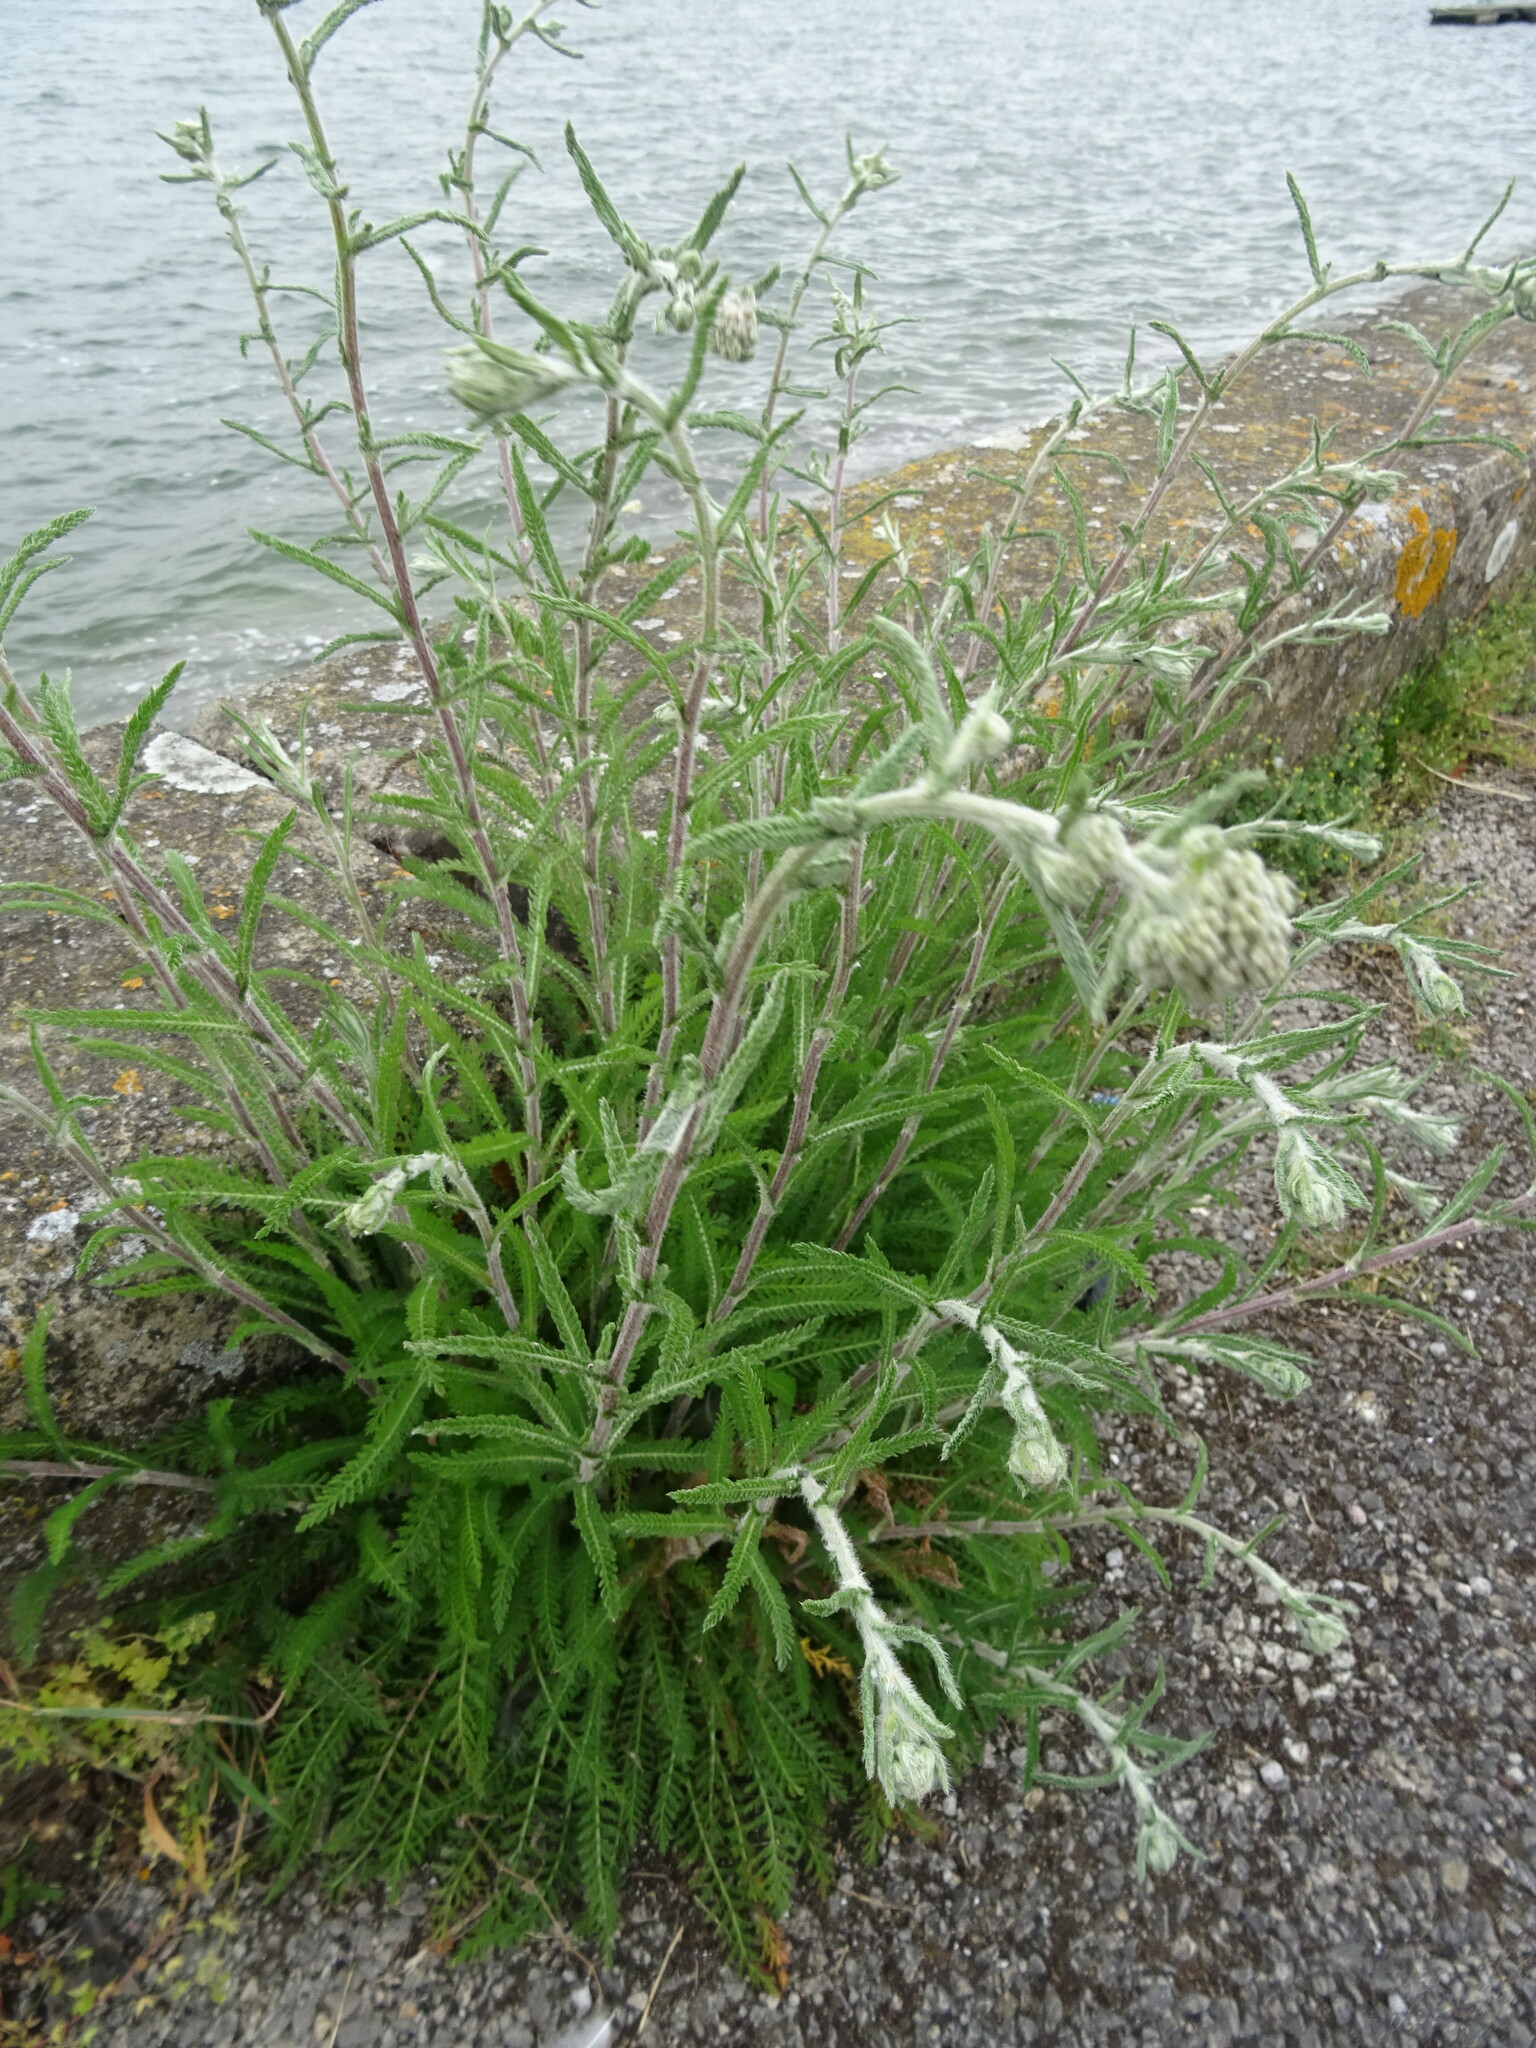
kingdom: Plantae
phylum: Tracheophyta
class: Magnoliopsida
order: Asterales
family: Asteraceae
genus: Achillea
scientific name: Achillea millefolium
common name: Yarrow
